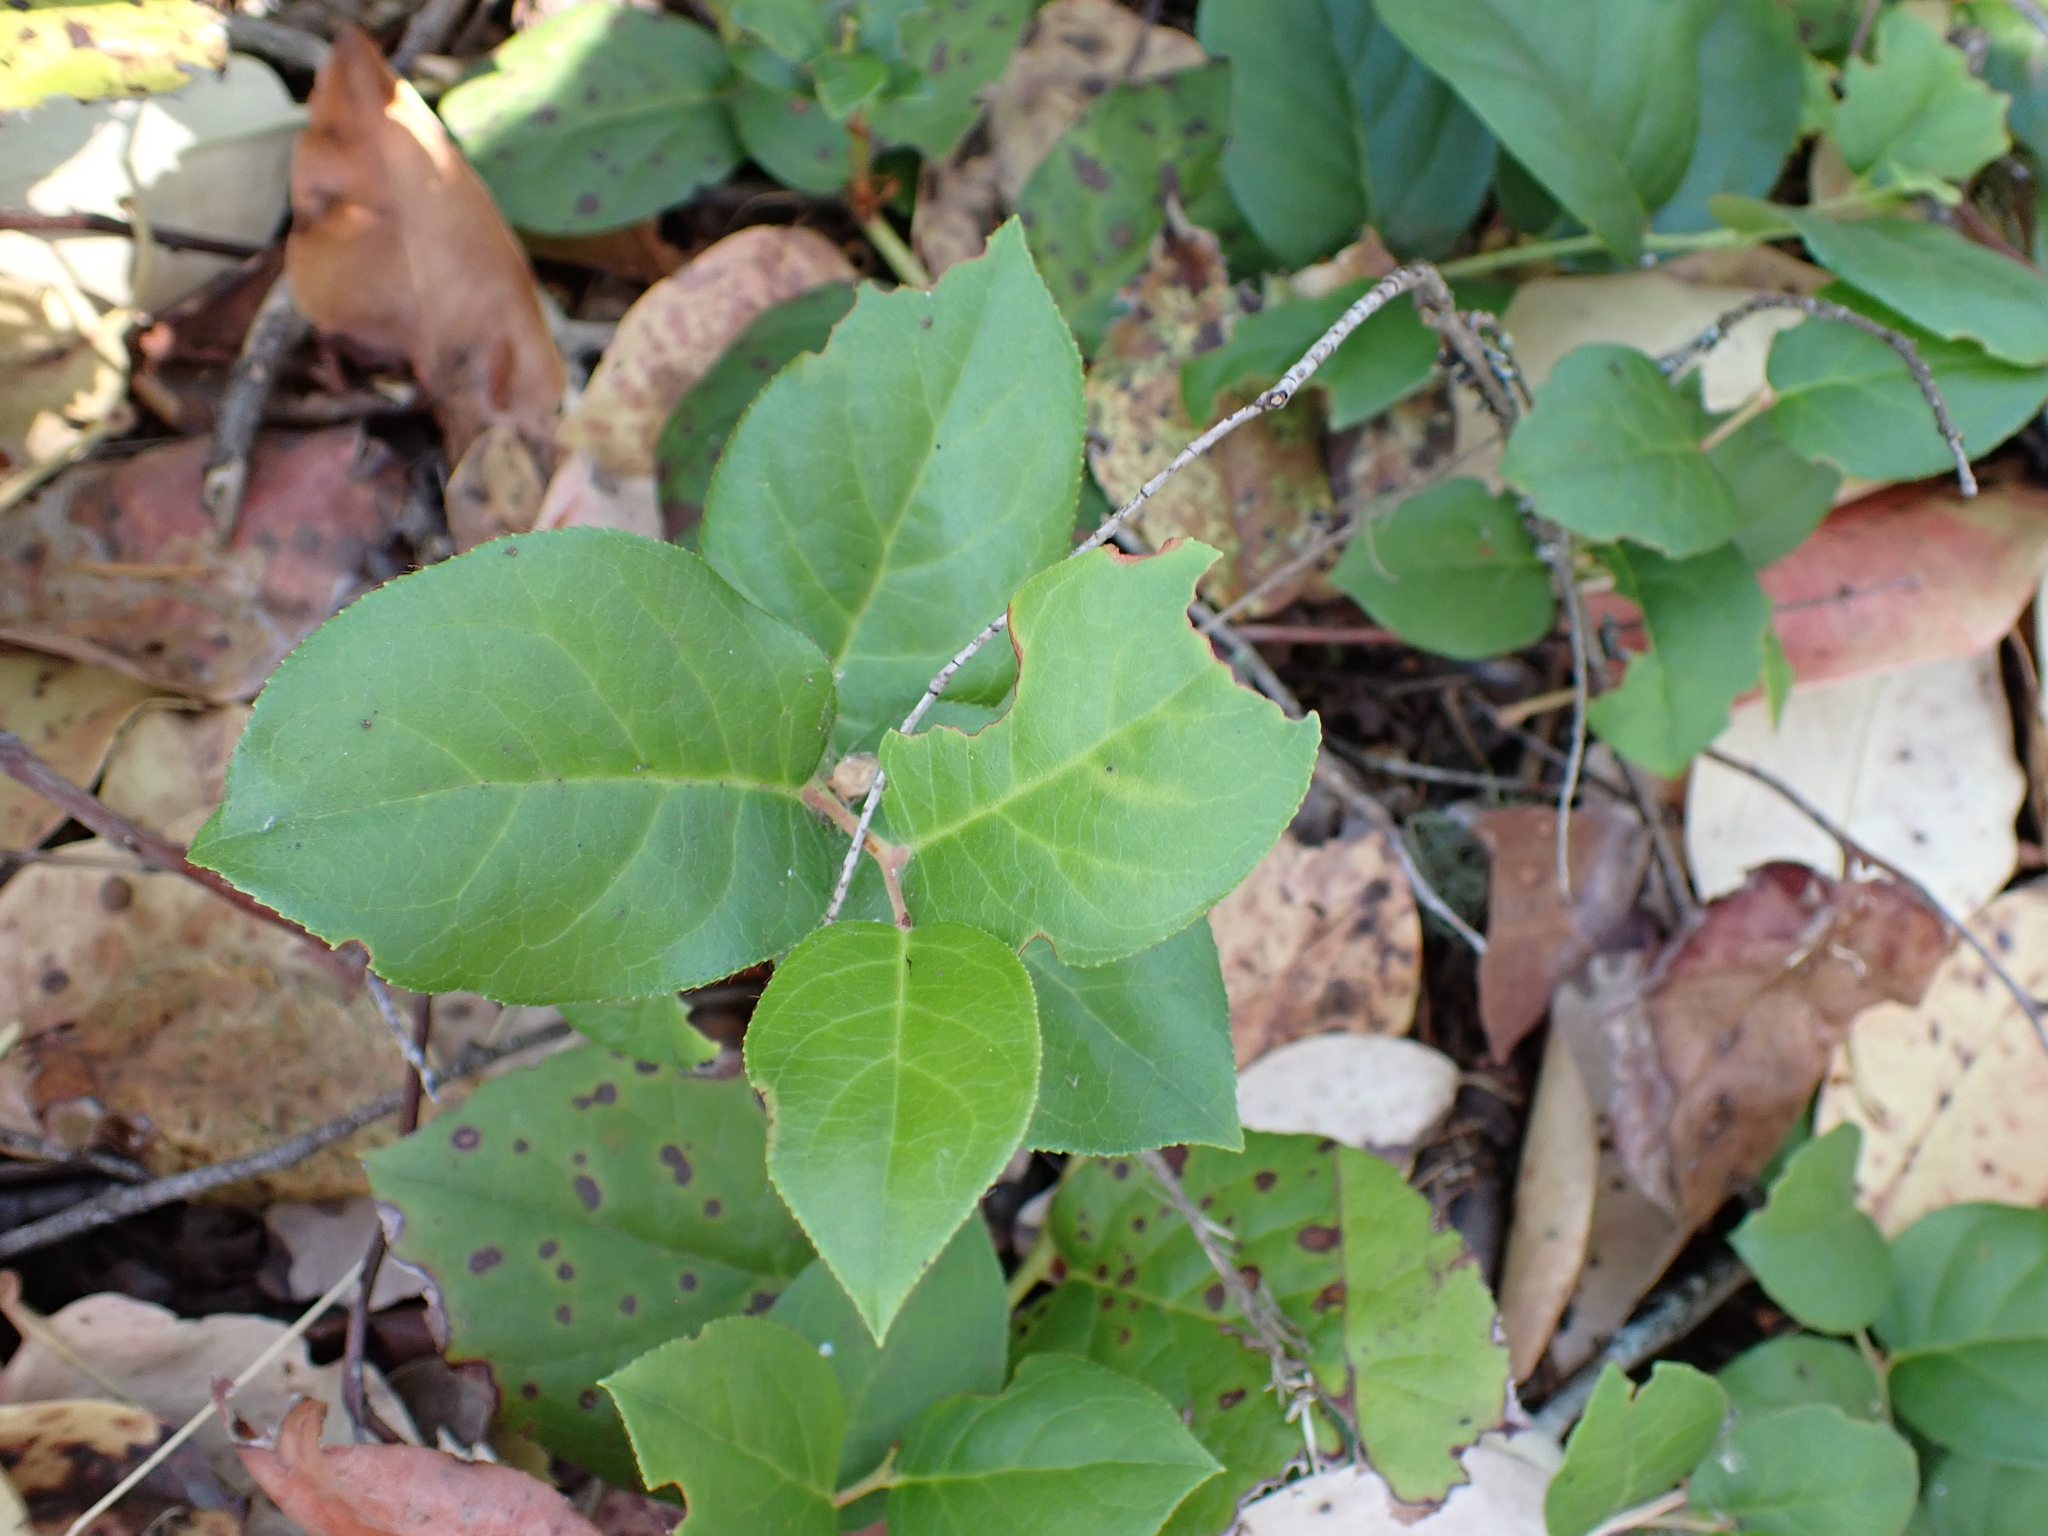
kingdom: Plantae
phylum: Tracheophyta
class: Magnoliopsida
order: Ericales
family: Ericaceae
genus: Gaultheria
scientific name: Gaultheria shallon
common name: Shallon
